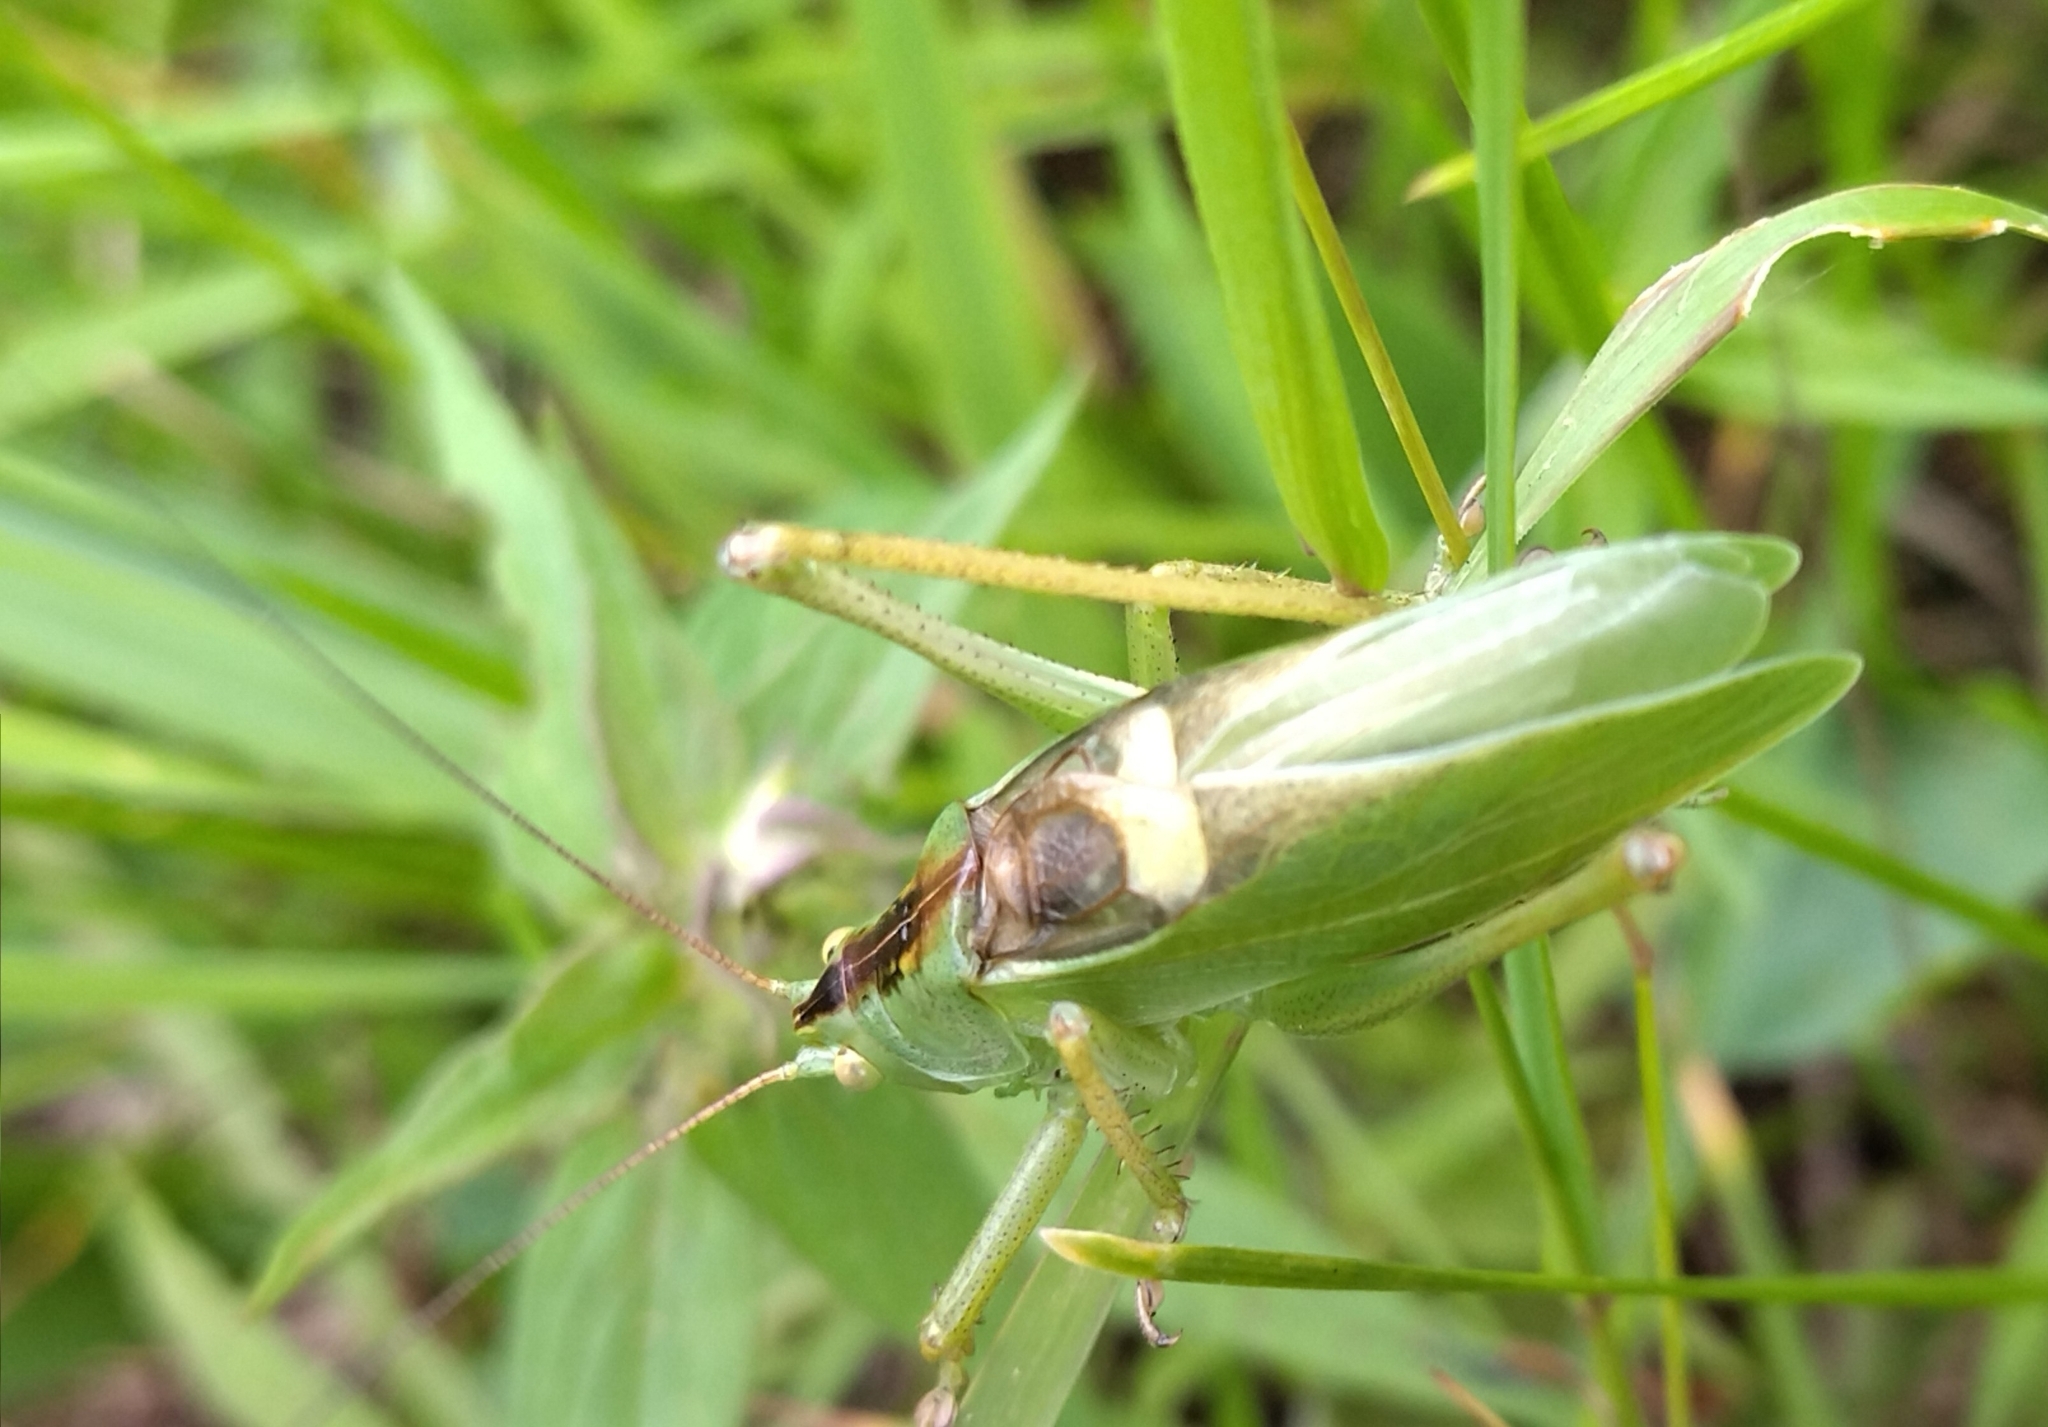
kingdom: Animalia
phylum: Arthropoda
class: Insecta
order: Orthoptera
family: Tettigoniidae
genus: Tettigonia
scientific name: Tettigonia cantans
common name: Upland green bush-cricket
